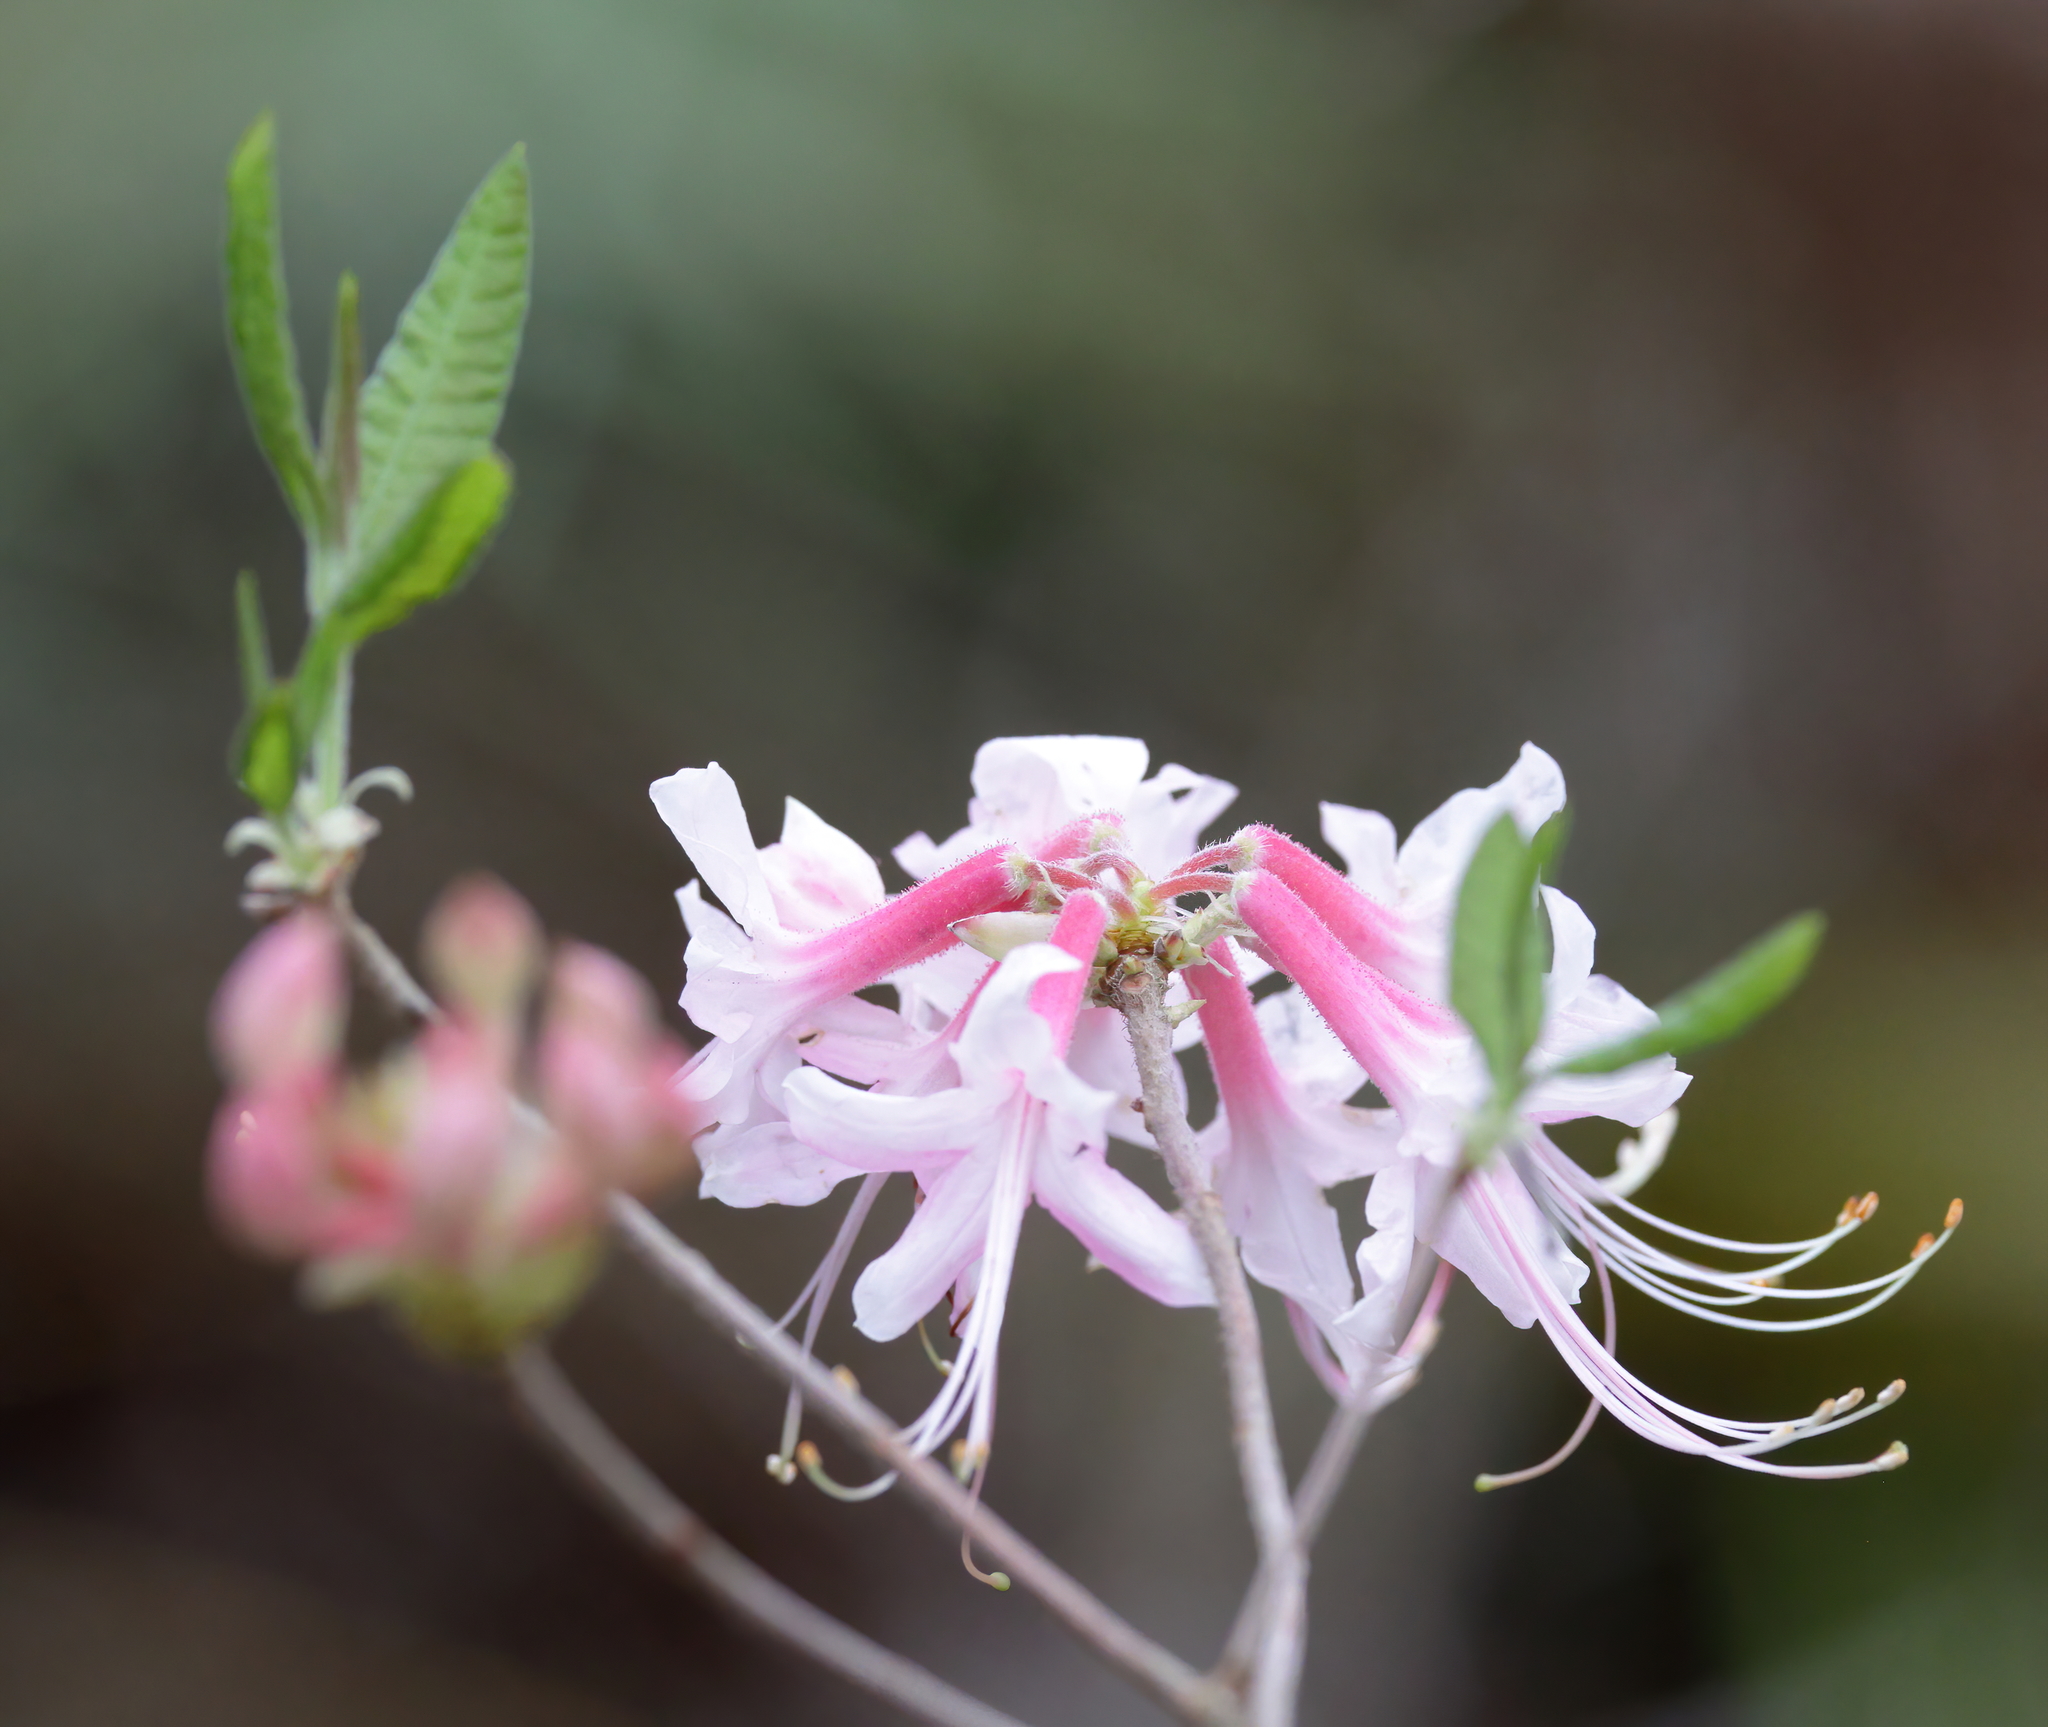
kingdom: Plantae
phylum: Tracheophyta
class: Magnoliopsida
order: Ericales
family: Ericaceae
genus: Rhododendron
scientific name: Rhododendron canescens
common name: Mountain azalea
